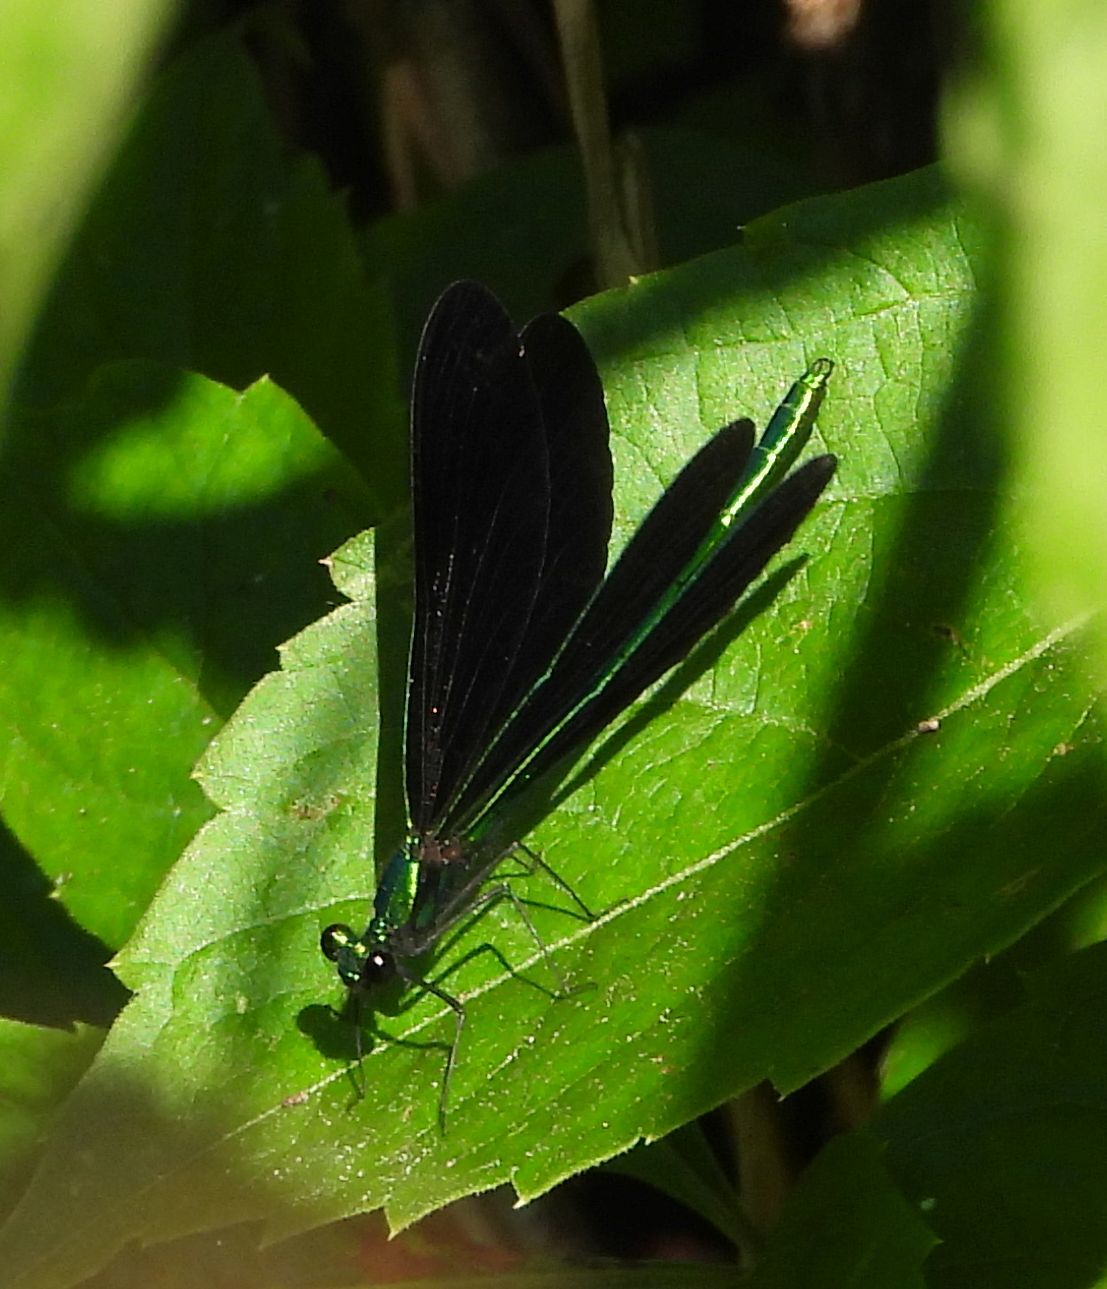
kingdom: Animalia
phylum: Arthropoda
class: Insecta
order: Odonata
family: Calopterygidae
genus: Calopteryx
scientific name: Calopteryx maculata
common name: Ebony jewelwing
